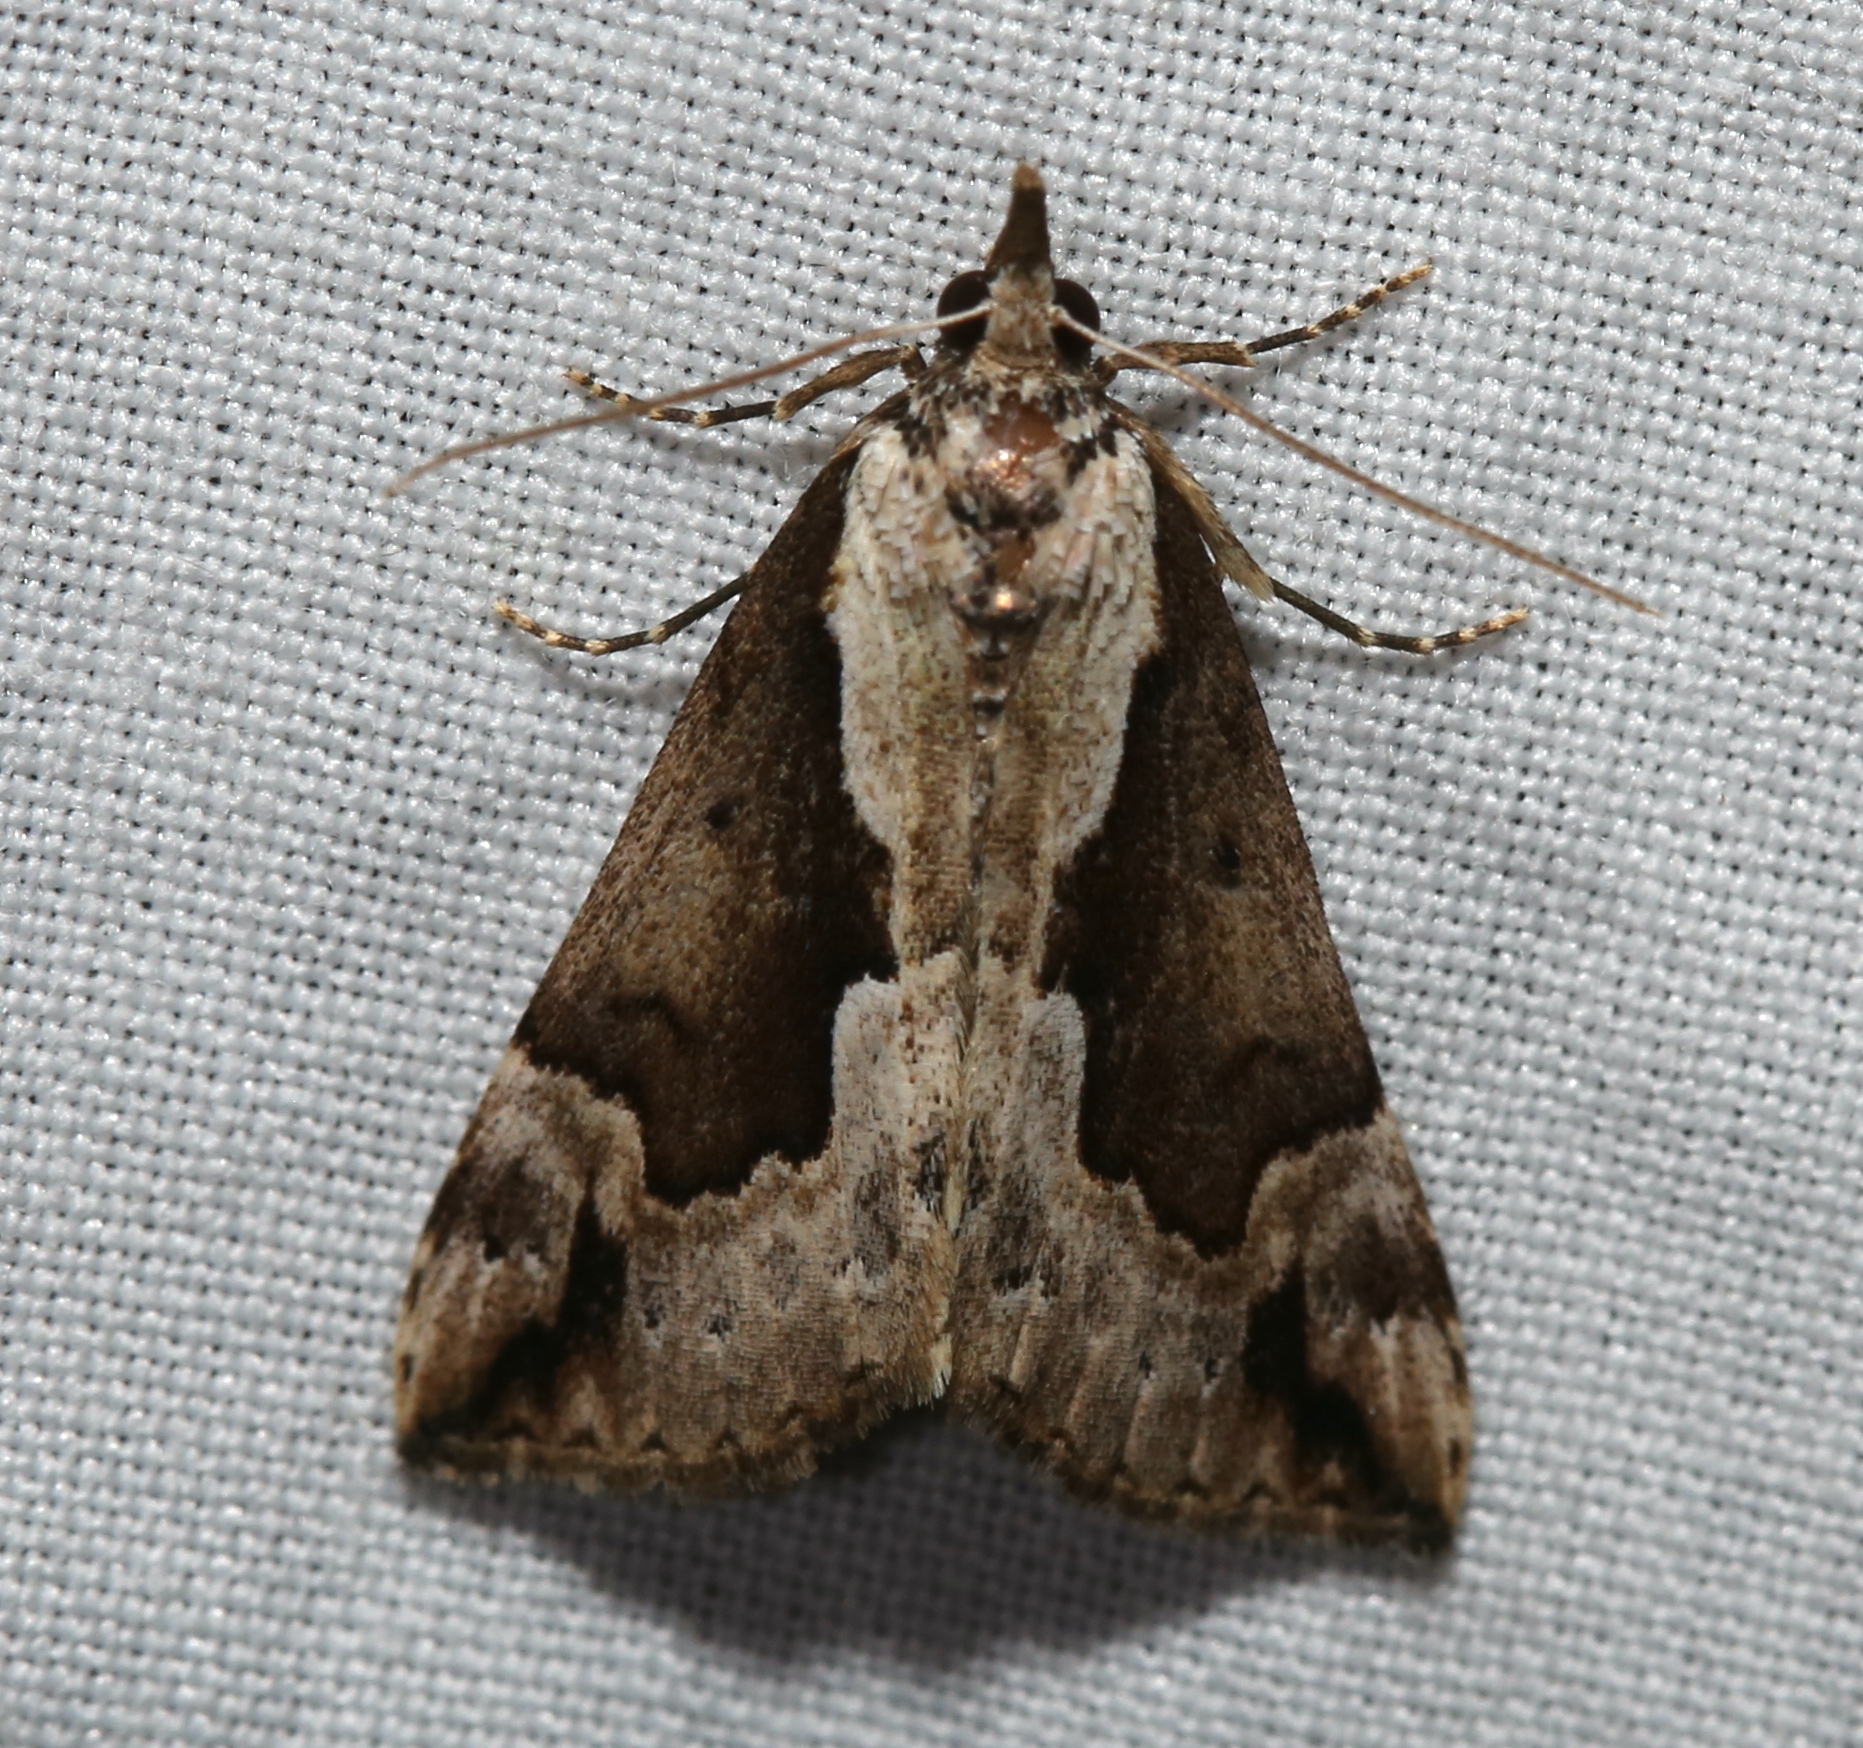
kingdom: Animalia
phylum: Arthropoda
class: Insecta
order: Lepidoptera
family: Erebidae
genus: Hypena
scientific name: Hypena baltimoralis
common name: Baltimore snout
